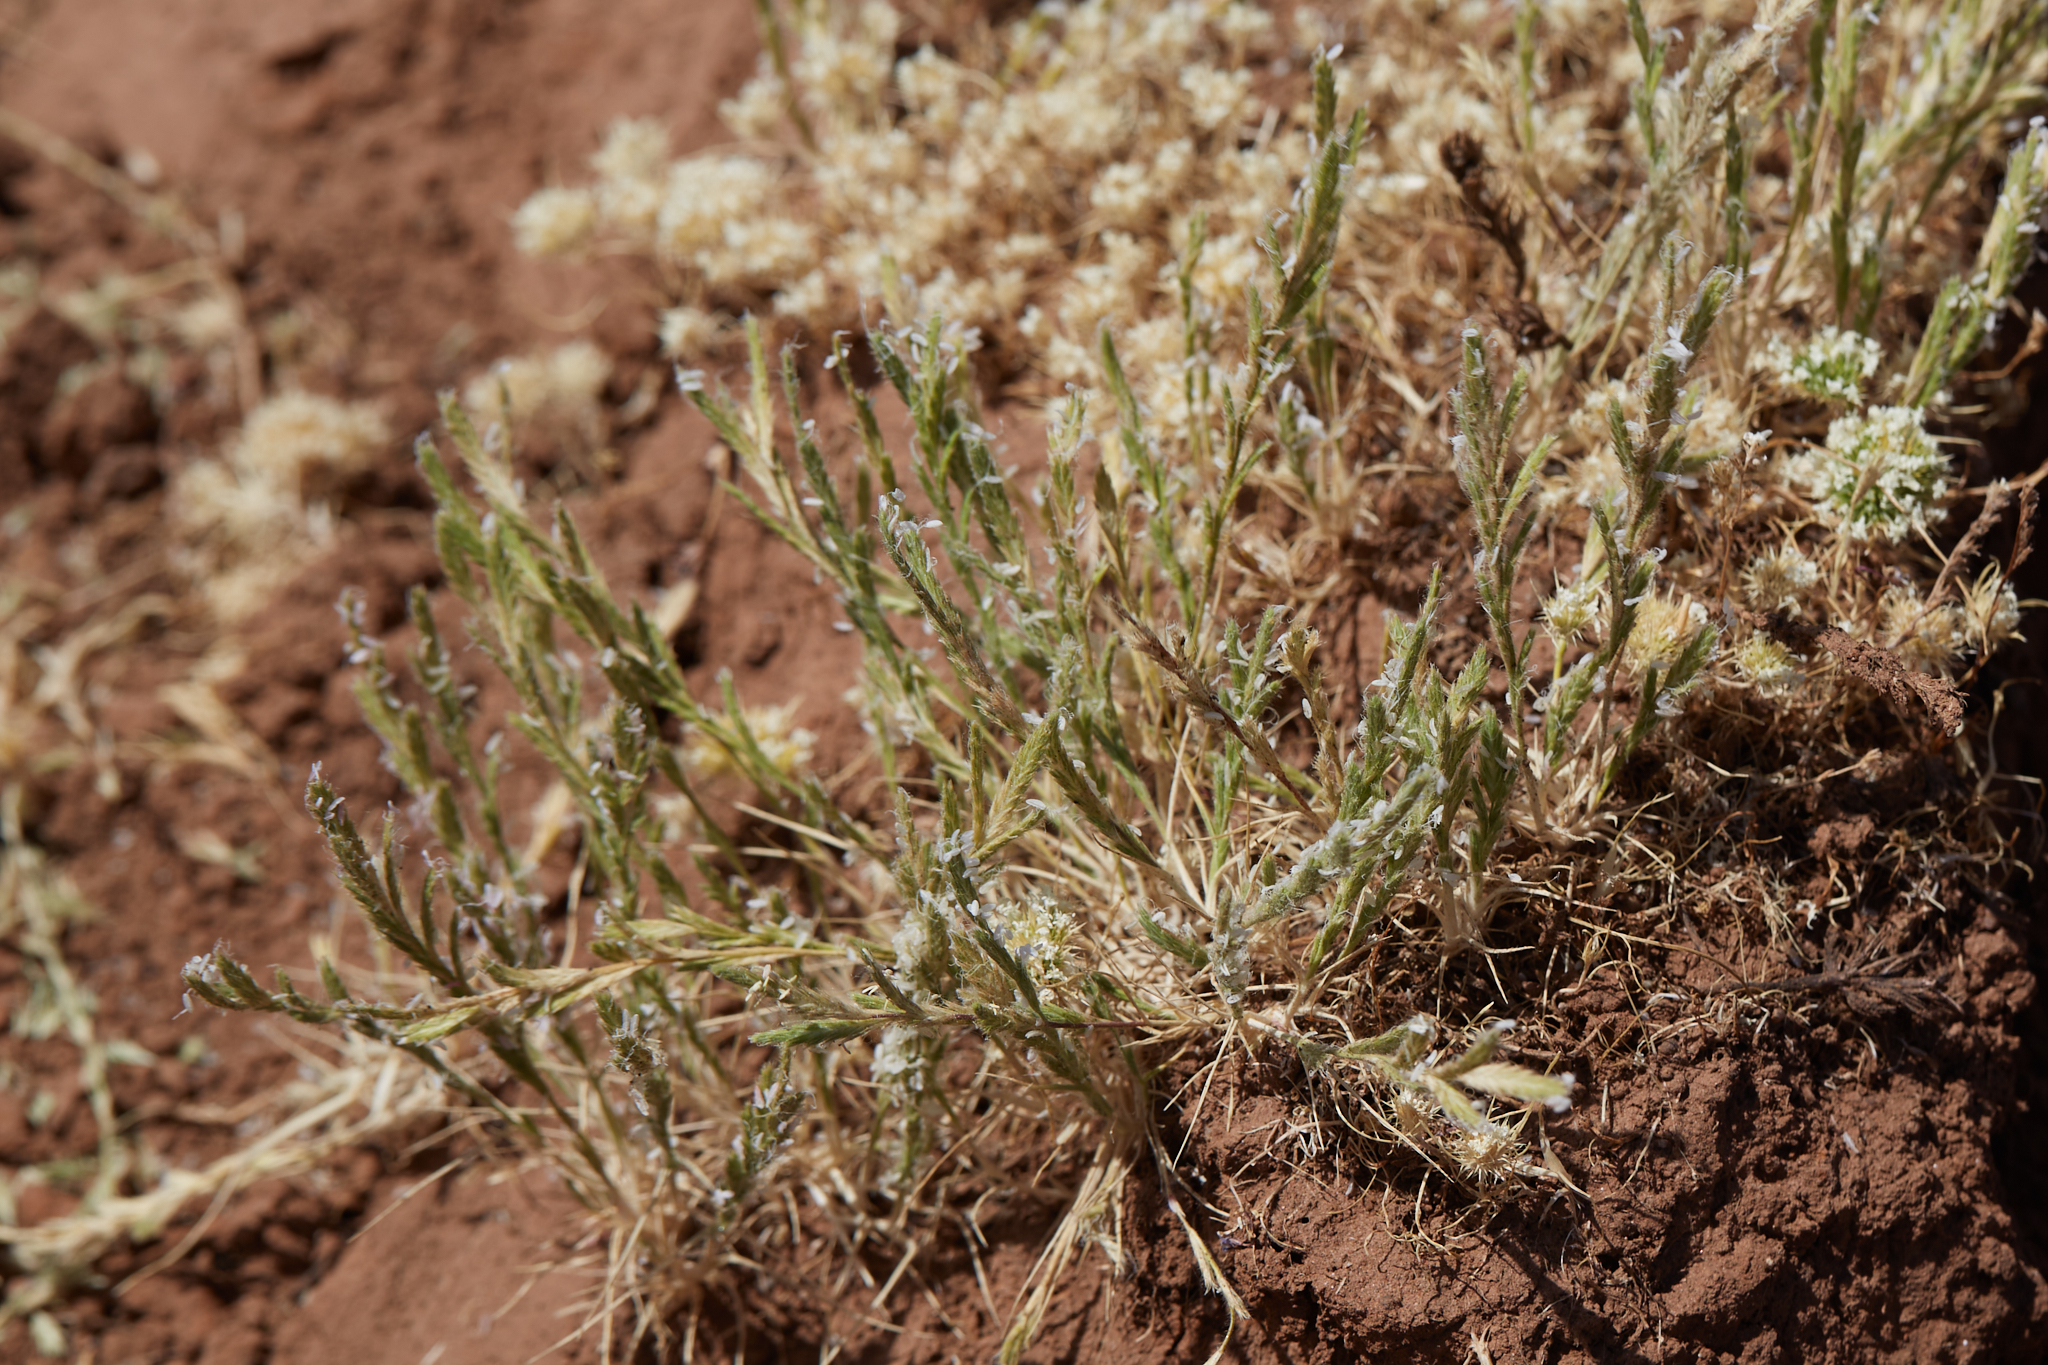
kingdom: Plantae
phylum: Tracheophyta
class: Liliopsida
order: Poales
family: Poaceae
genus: Orcuttia
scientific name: Orcuttia tenuis
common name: Slender orcutt grass
